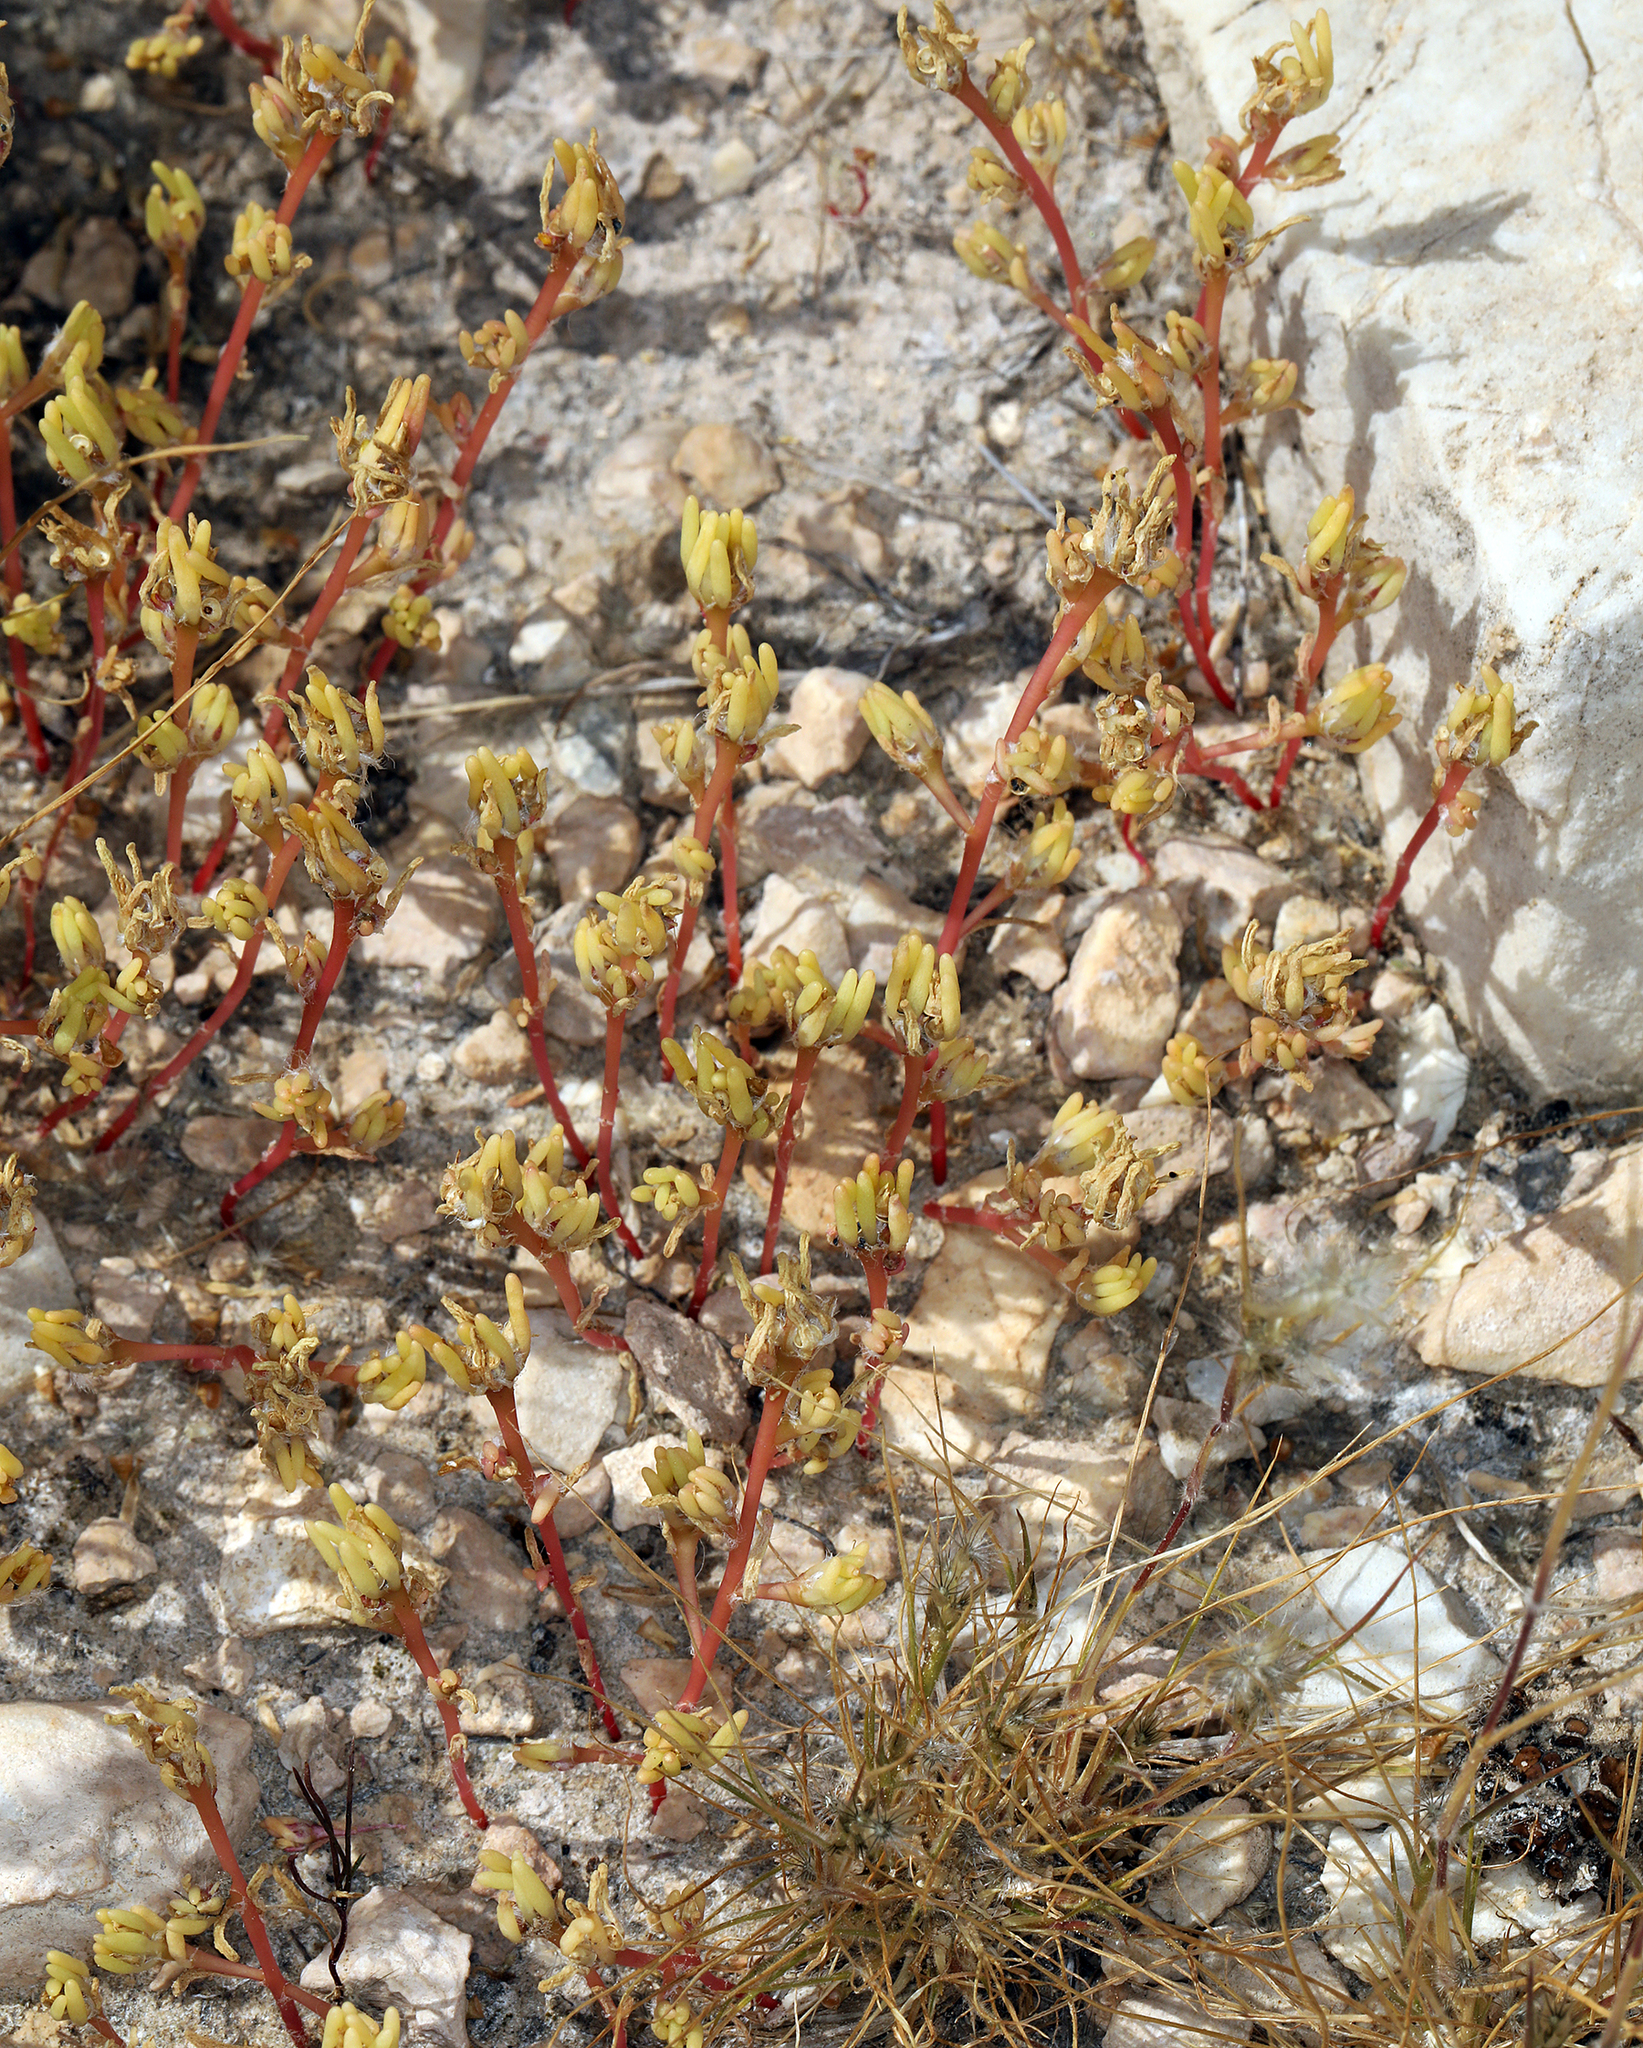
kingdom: Plantae
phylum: Tracheophyta
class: Magnoliopsida
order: Caryophyllales
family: Portulacaceae
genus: Portulaca
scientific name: Portulaca halimoides
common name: Silk cotton purslane
